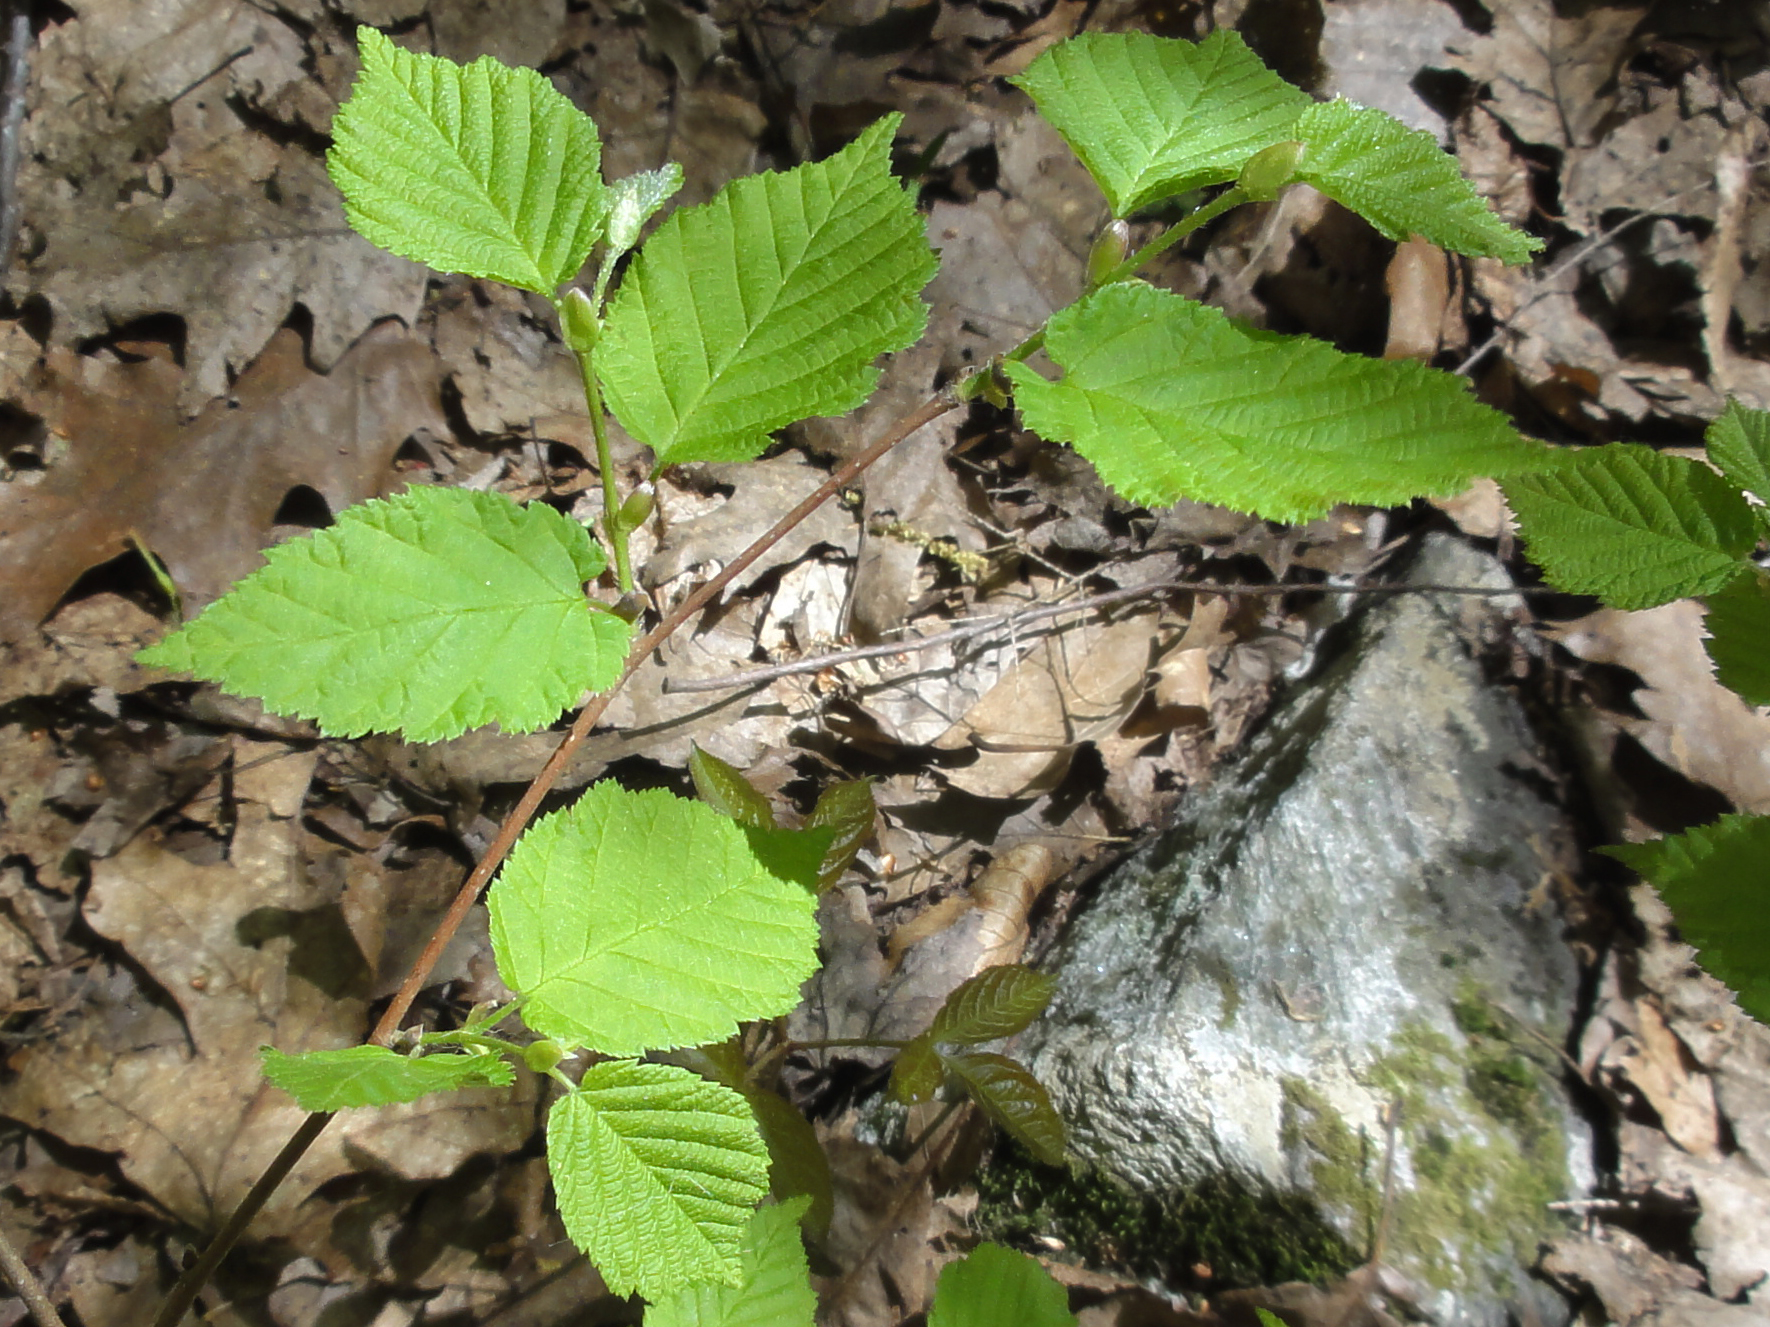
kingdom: Plantae
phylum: Tracheophyta
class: Magnoliopsida
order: Fagales
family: Betulaceae
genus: Corylus
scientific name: Corylus cornuta
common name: Beaked hazel
